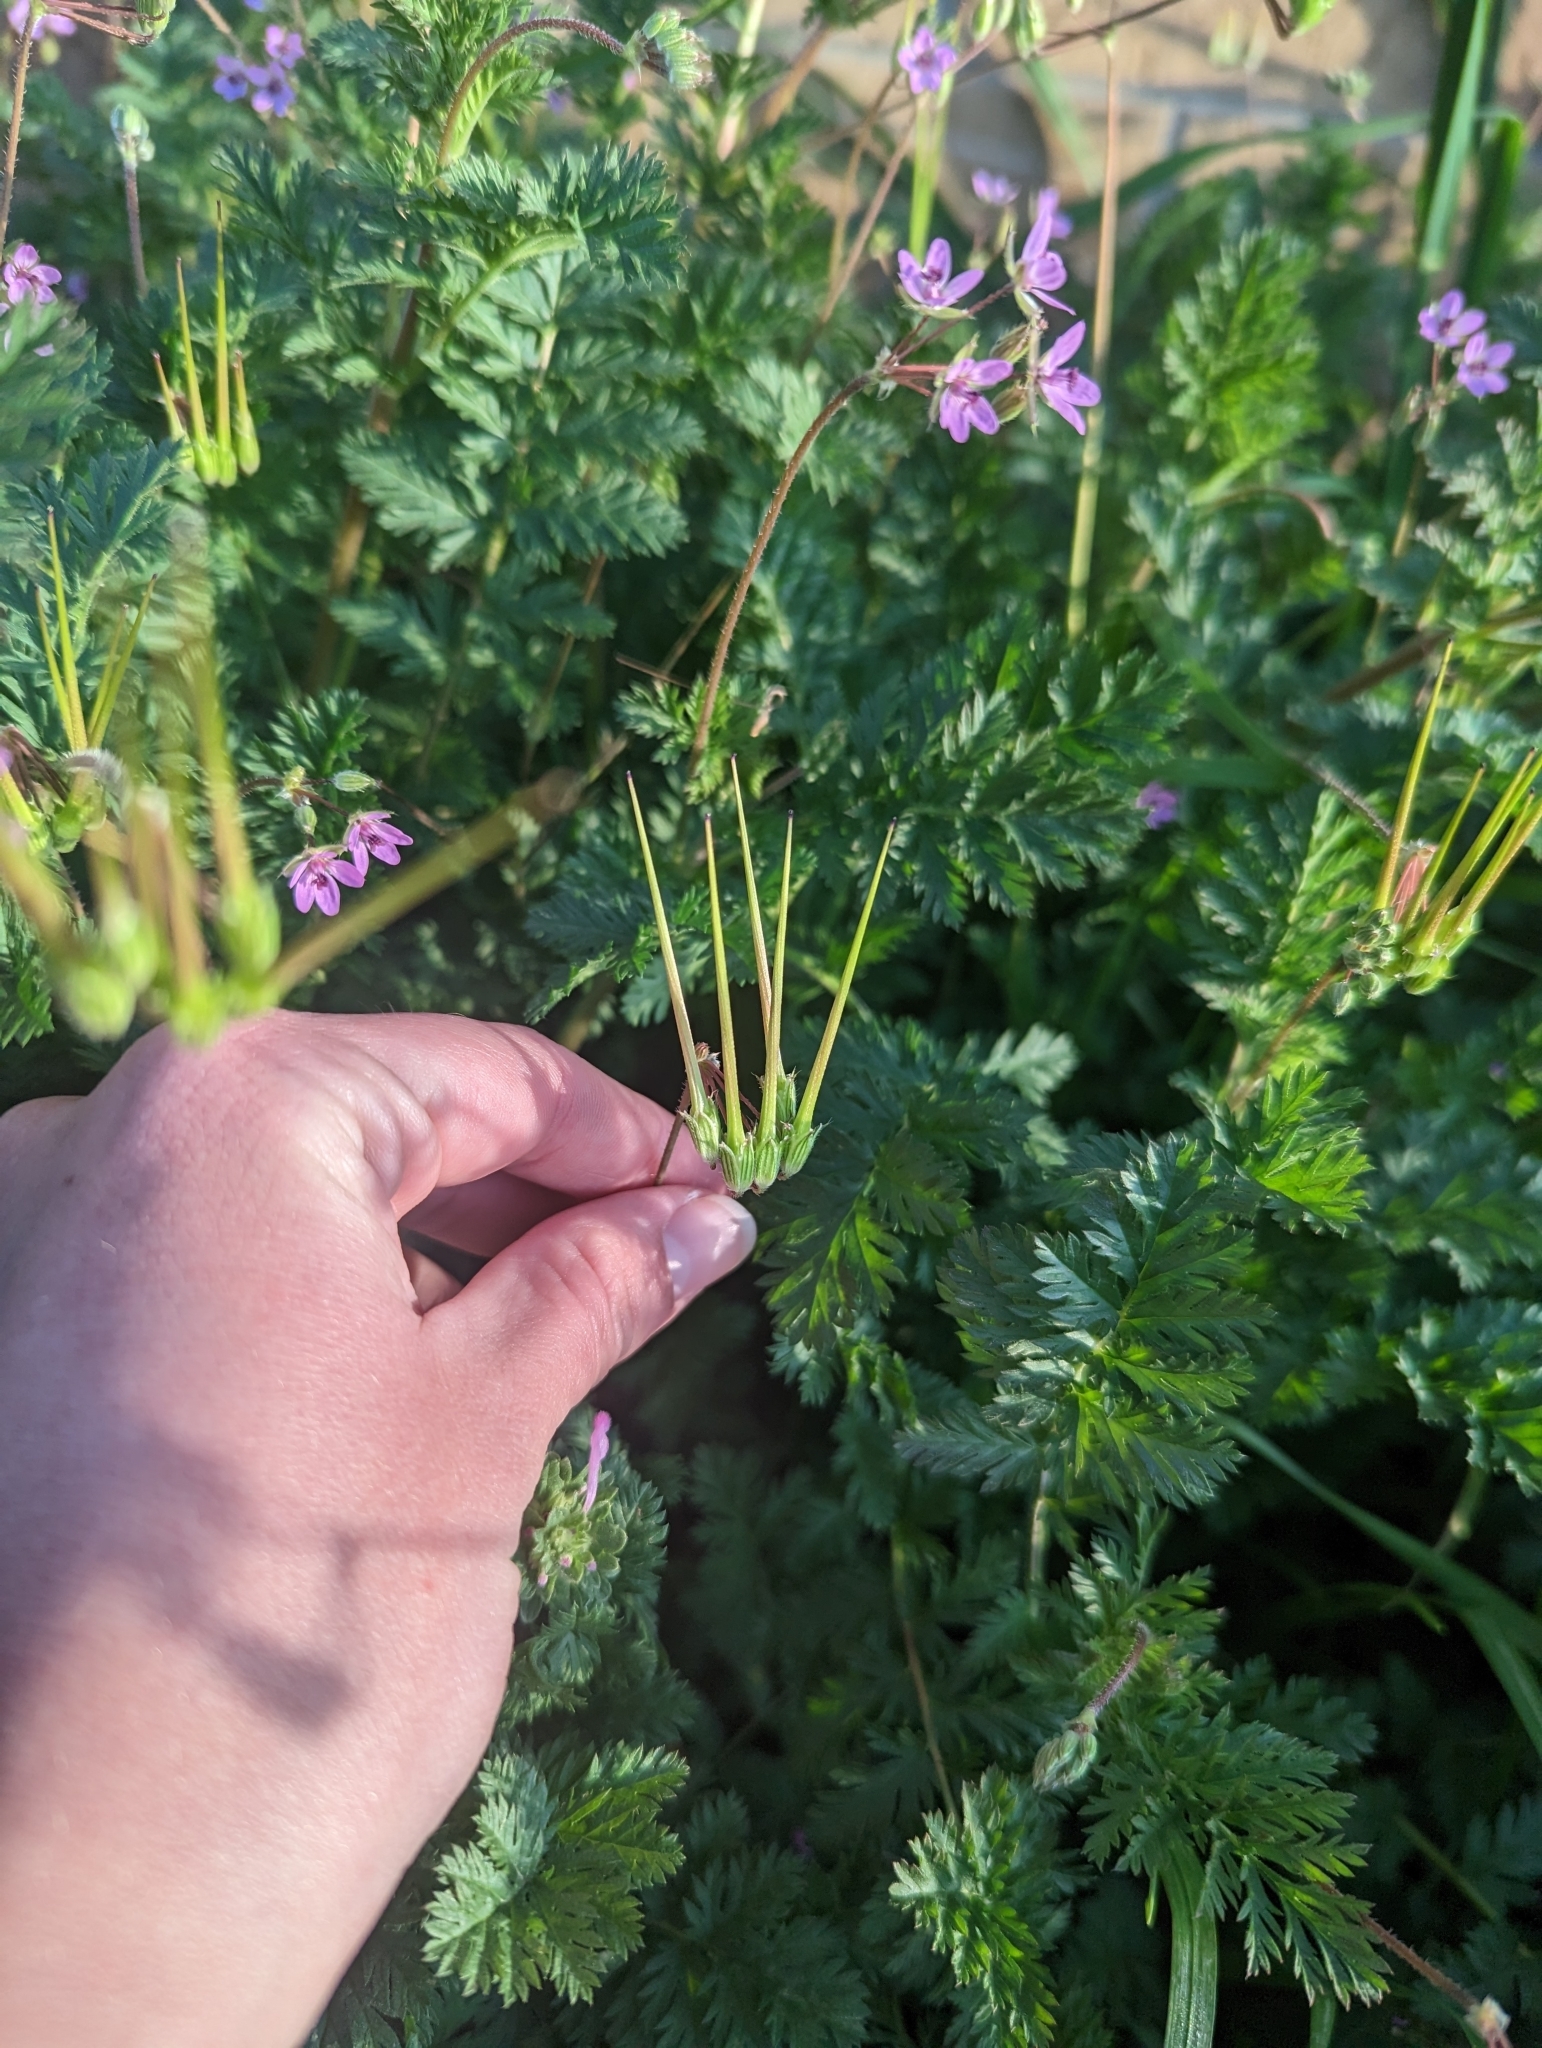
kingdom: Plantae
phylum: Tracheophyta
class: Magnoliopsida
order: Geraniales
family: Geraniaceae
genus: Erodium
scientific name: Erodium cicutarium
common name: Common stork's-bill
